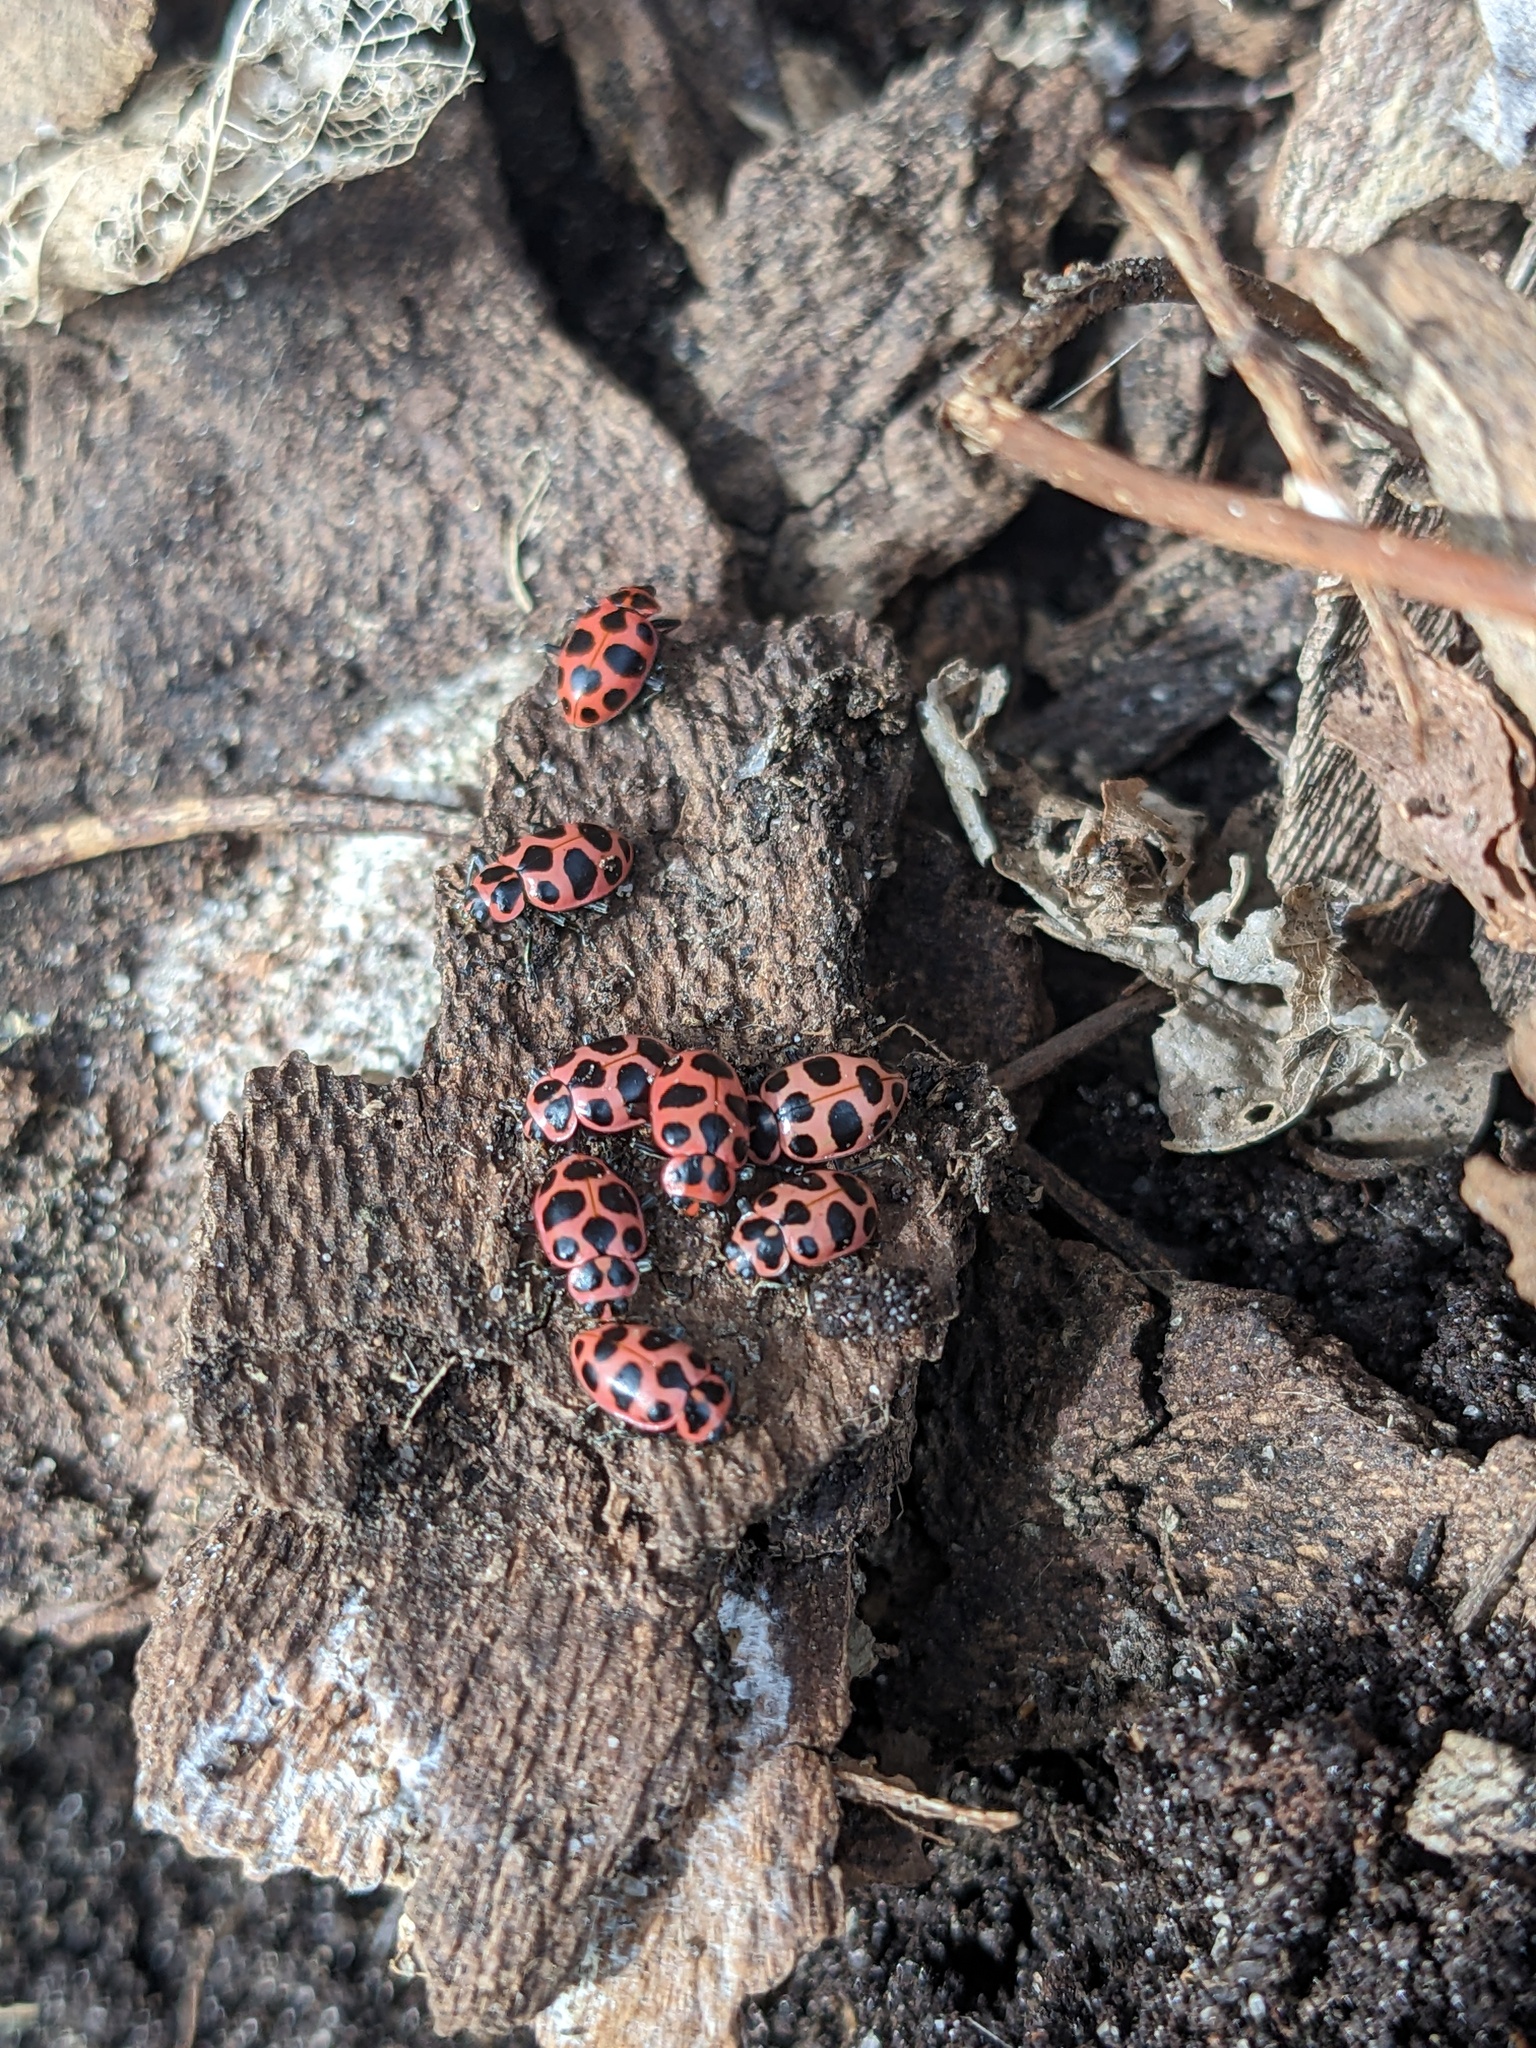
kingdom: Animalia
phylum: Arthropoda
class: Insecta
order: Coleoptera
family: Coccinellidae
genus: Coleomegilla
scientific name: Coleomegilla maculata
